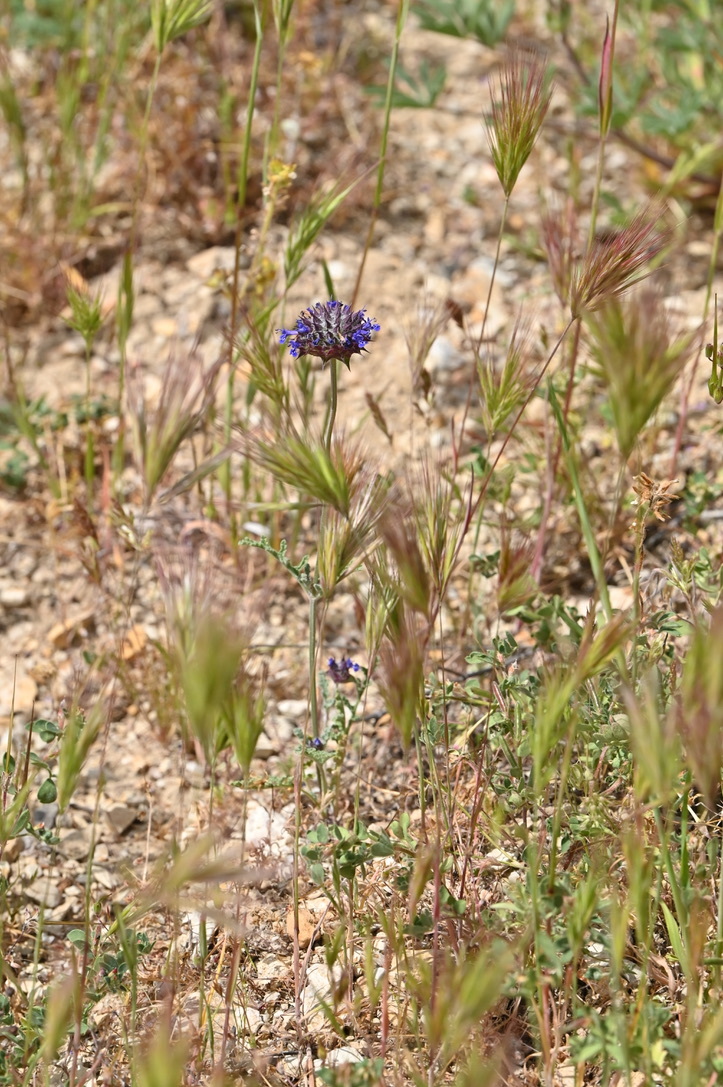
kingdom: Plantae
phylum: Tracheophyta
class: Magnoliopsida
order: Lamiales
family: Lamiaceae
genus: Salvia
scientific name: Salvia columbariae
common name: Chia
